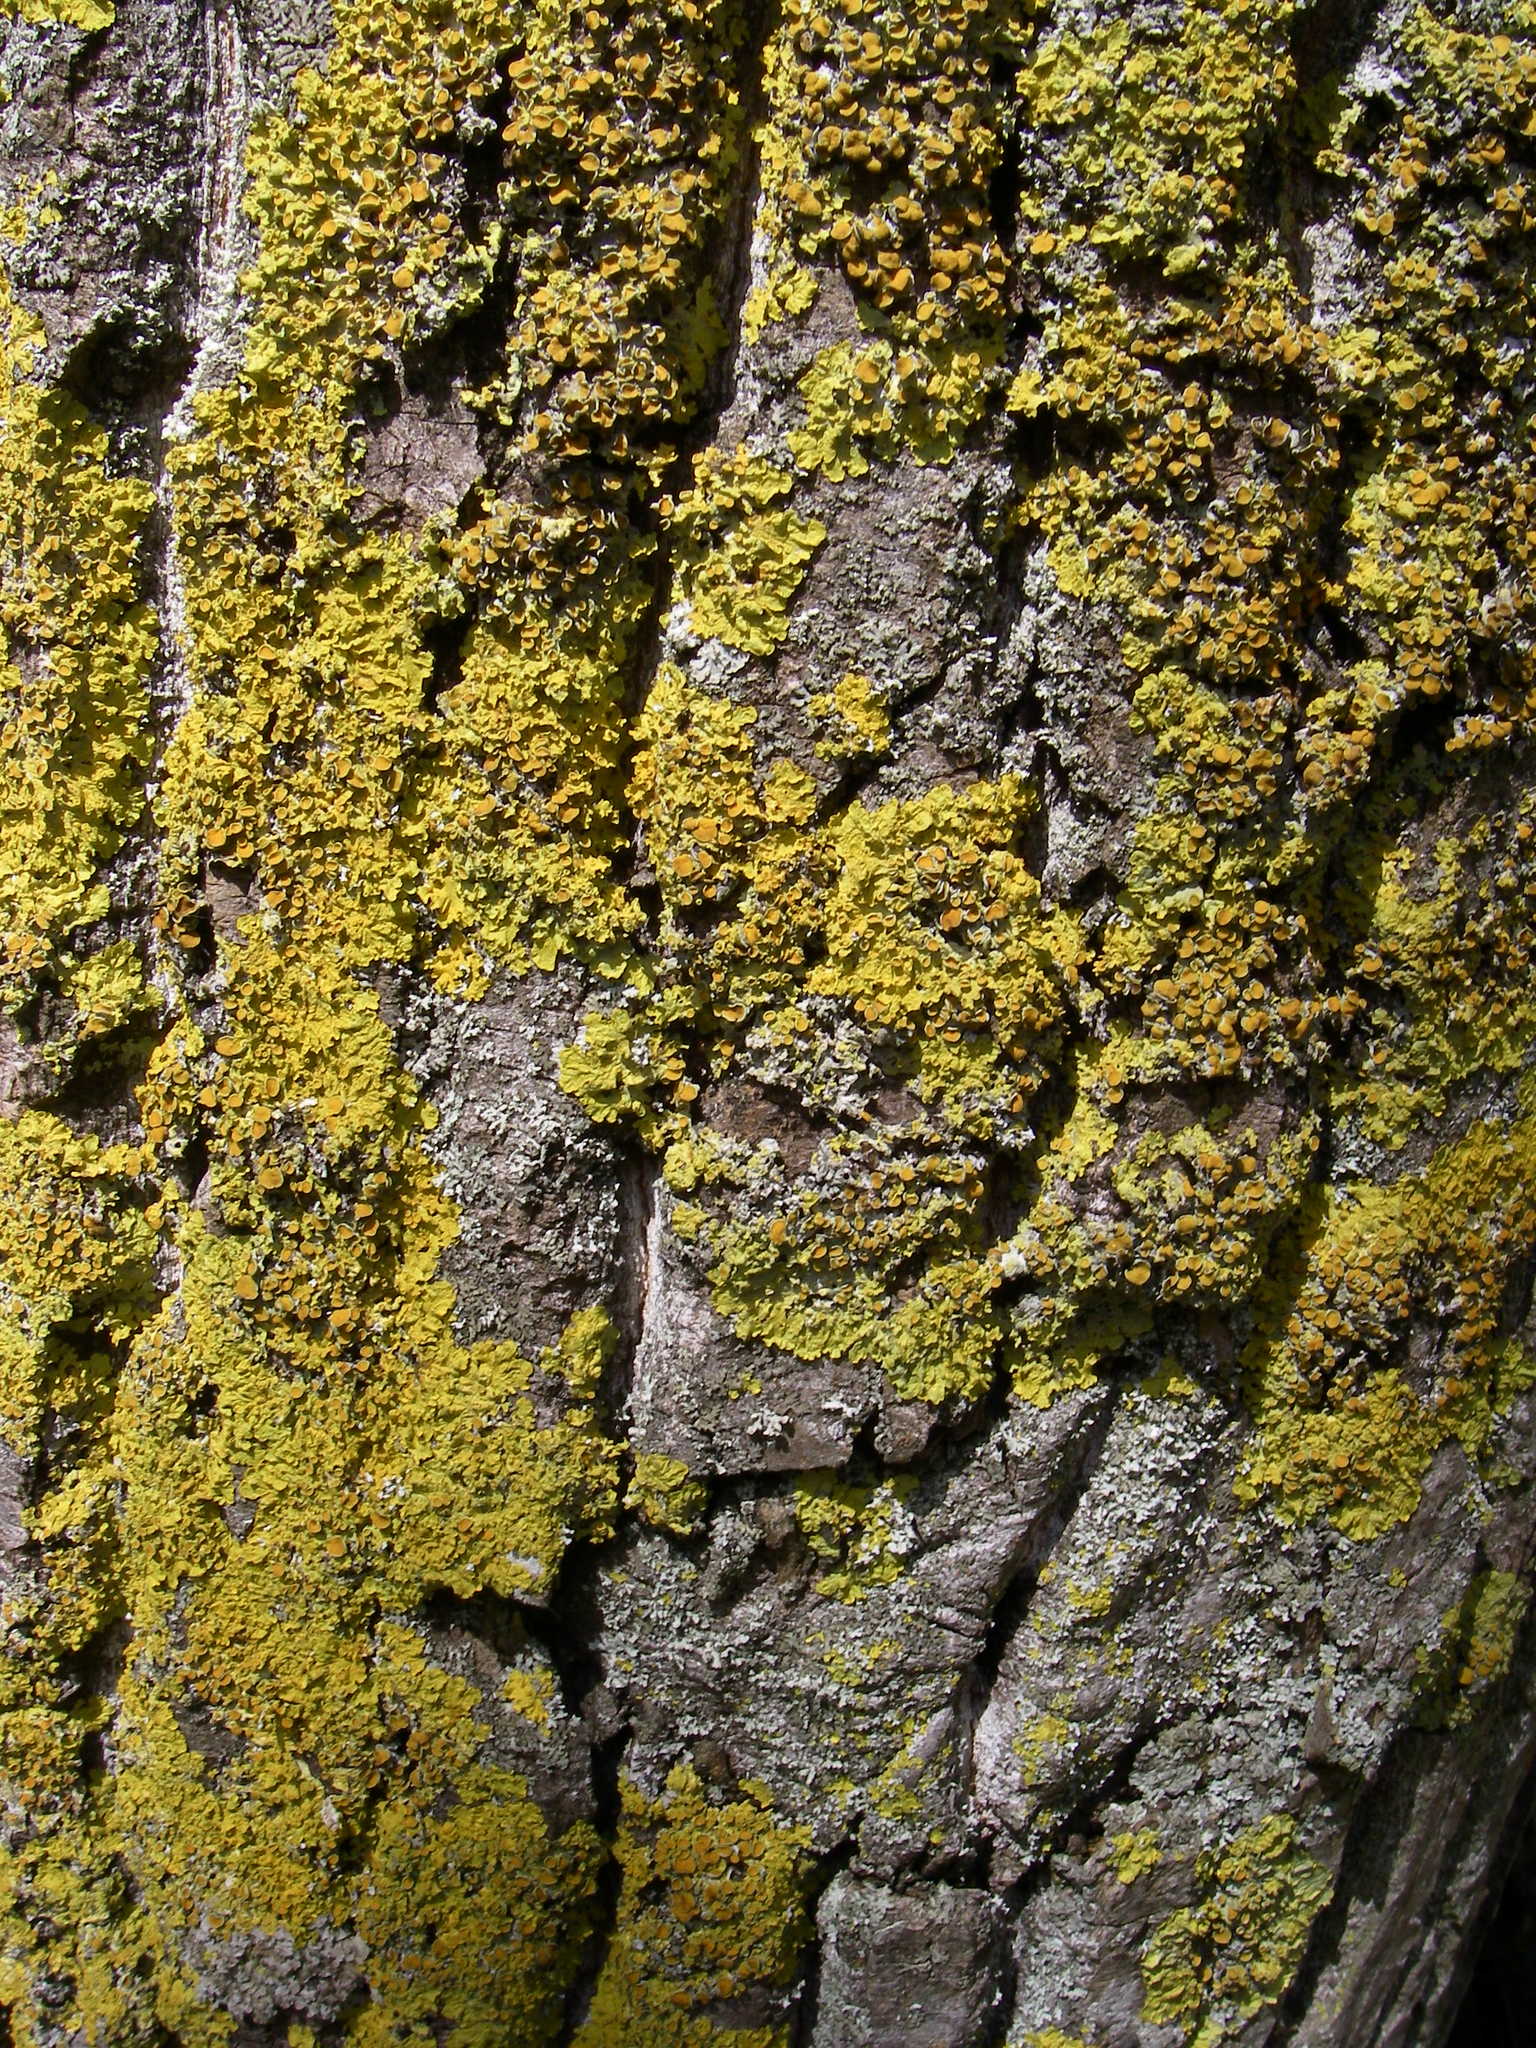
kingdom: Fungi
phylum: Ascomycota
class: Lecanoromycetes
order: Teloschistales
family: Teloschistaceae
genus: Xanthoria
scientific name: Xanthoria parietina
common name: Common orange lichen
